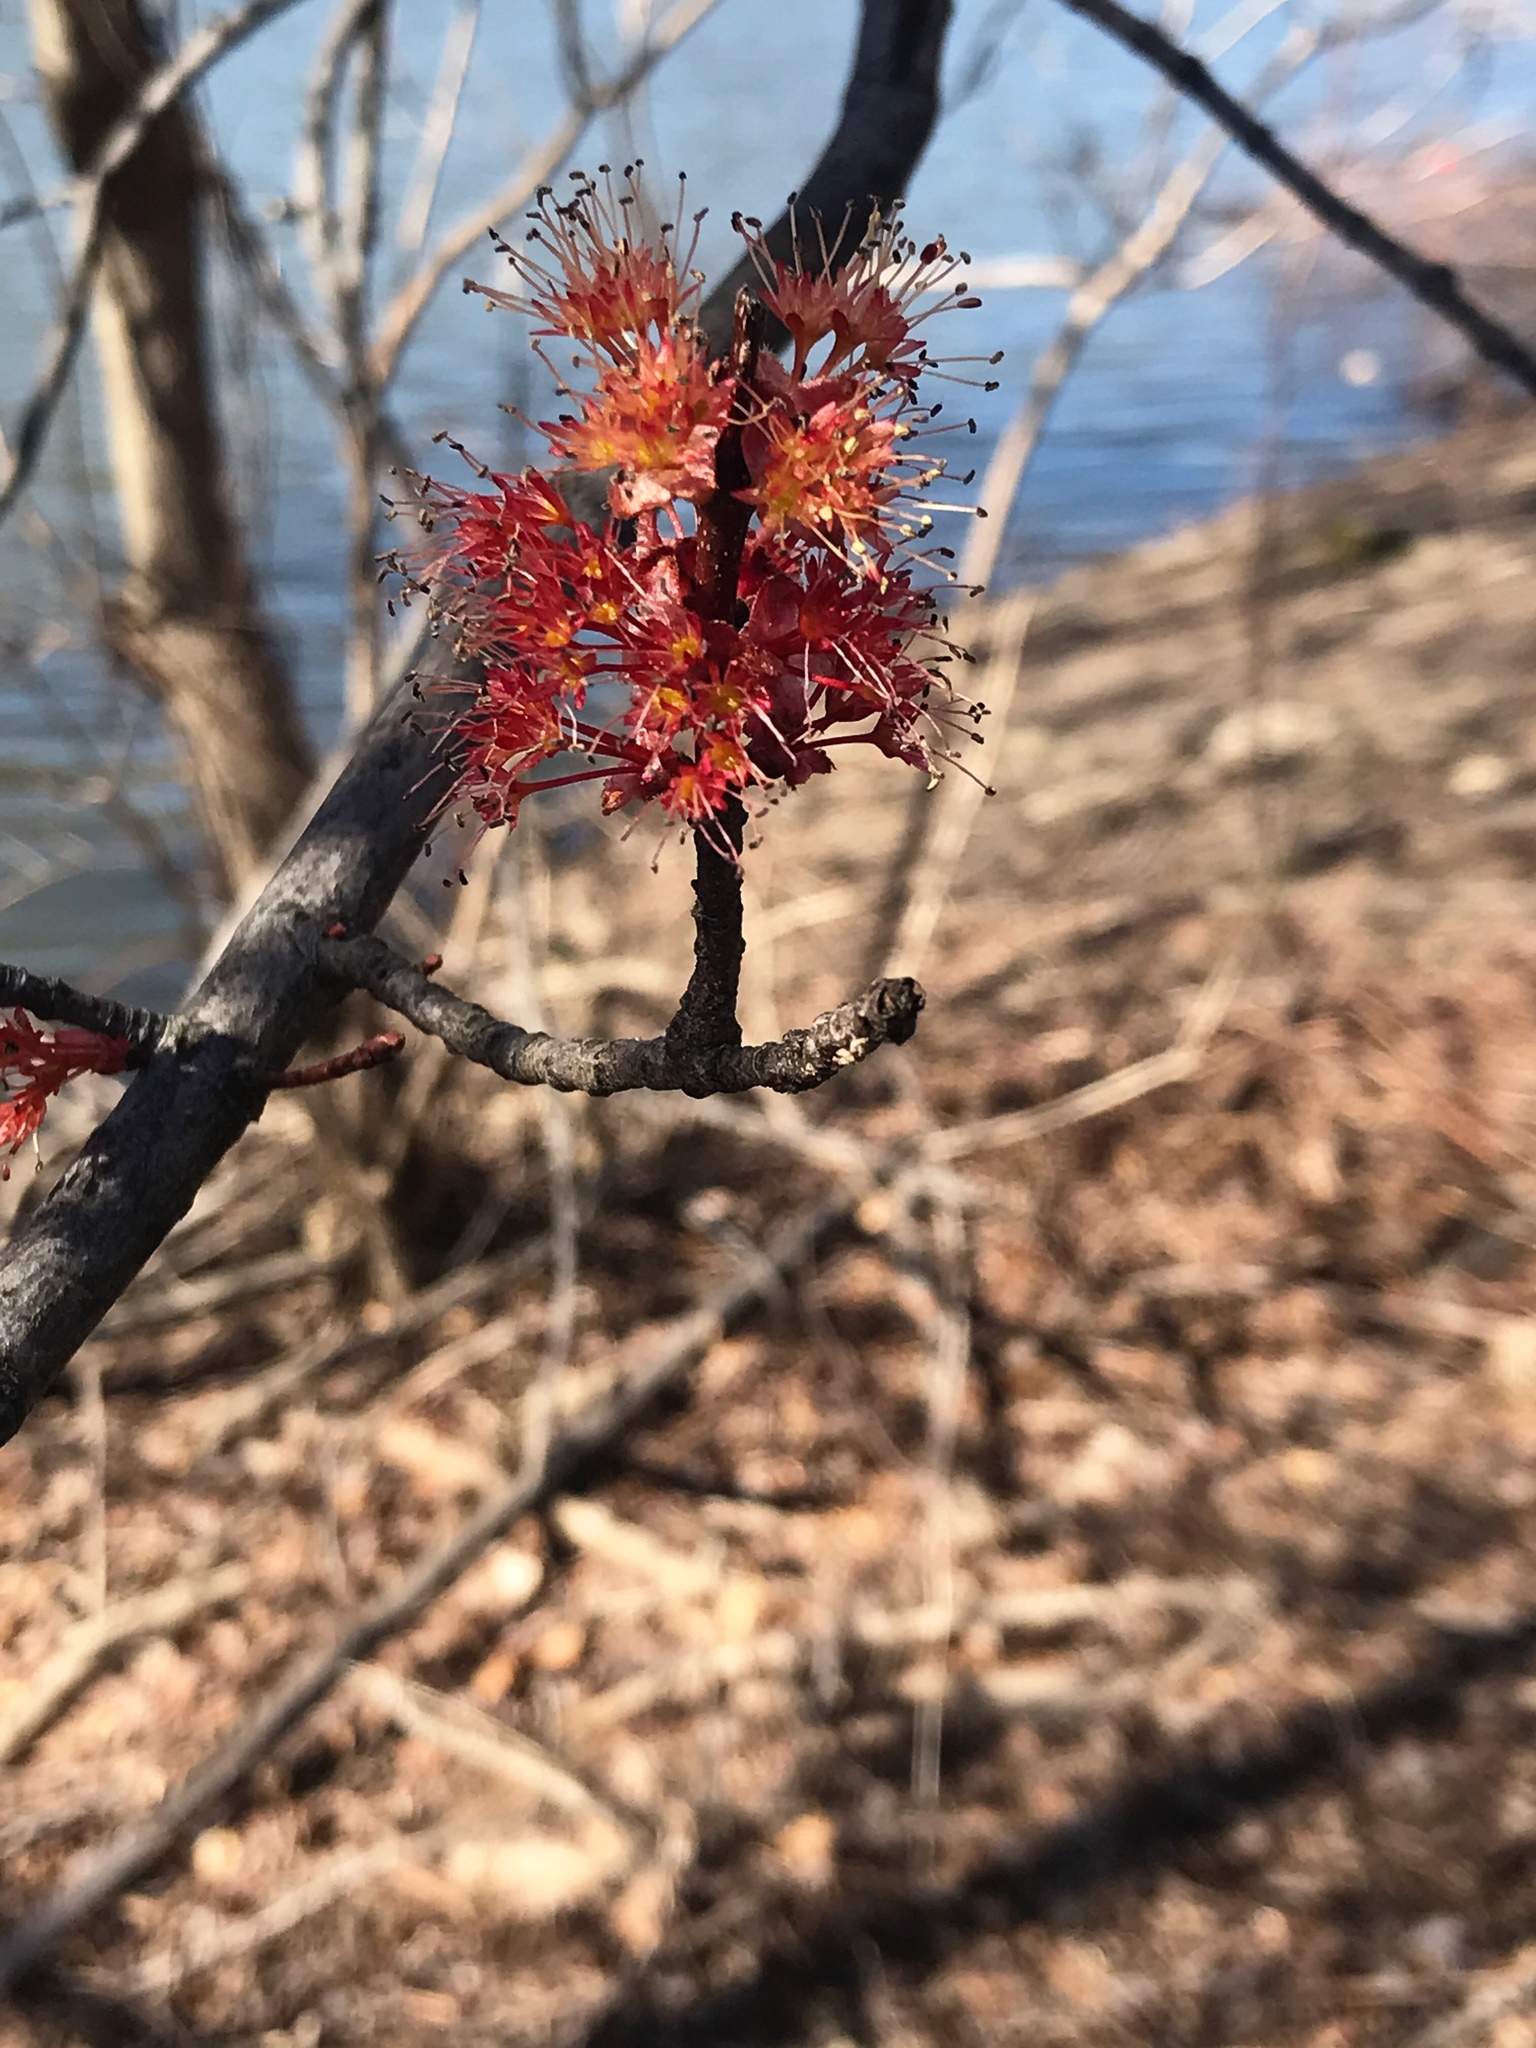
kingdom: Plantae
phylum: Tracheophyta
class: Magnoliopsida
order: Sapindales
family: Sapindaceae
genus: Acer
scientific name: Acer rubrum
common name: Red maple
